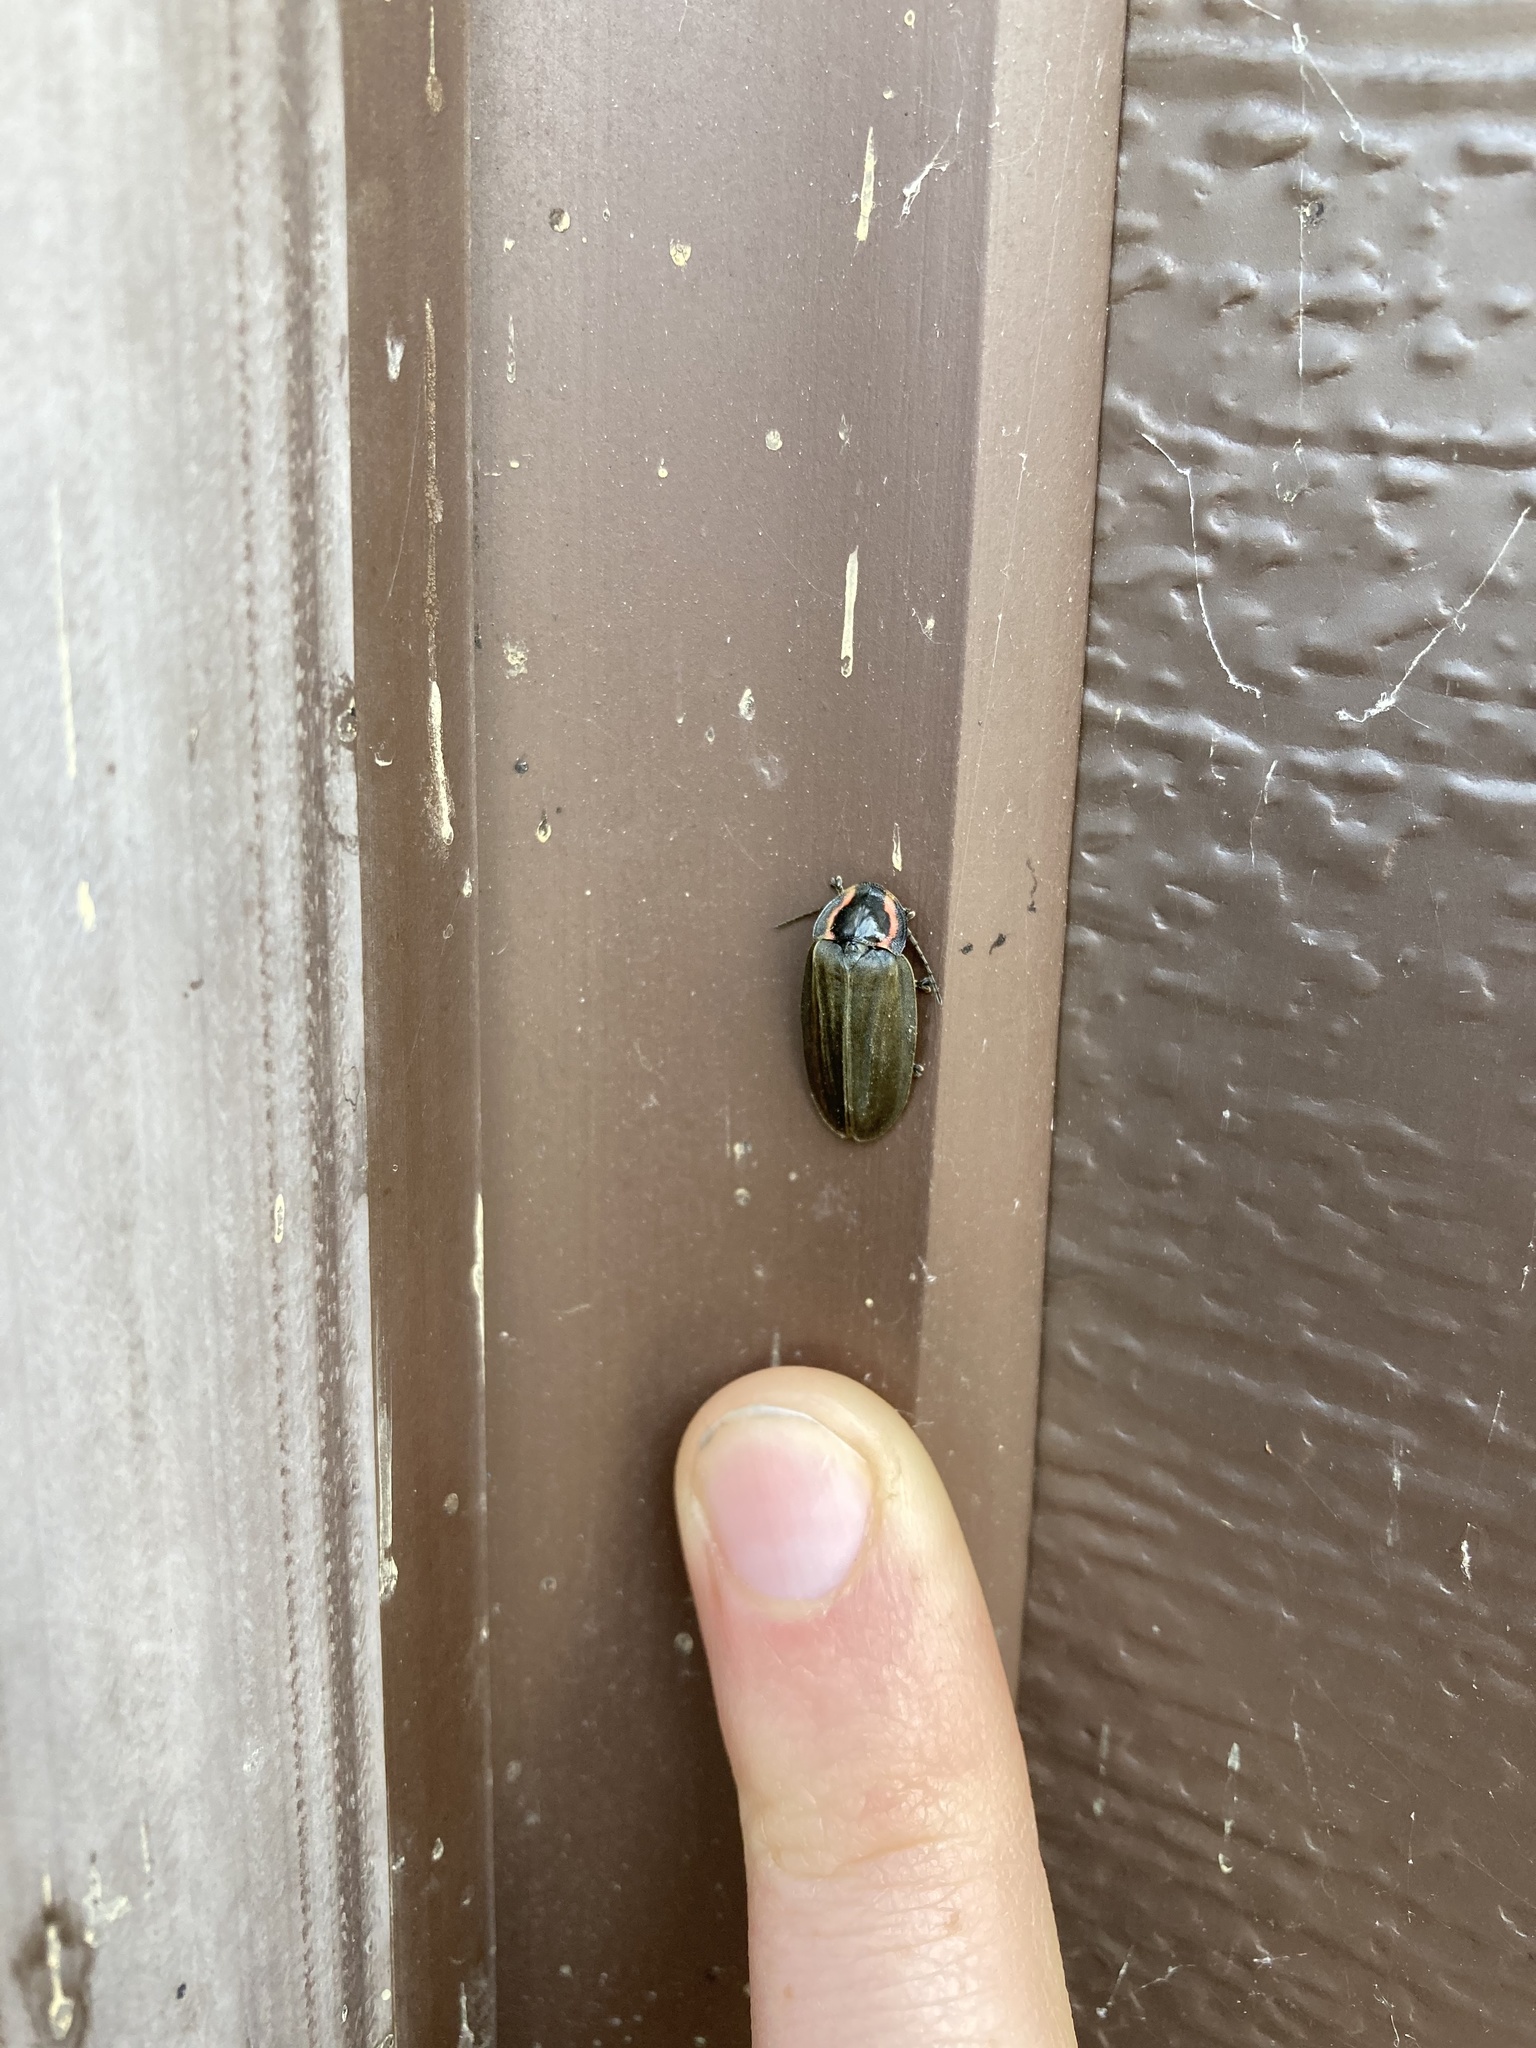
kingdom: Animalia
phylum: Arthropoda
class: Insecta
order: Coleoptera
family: Lampyridae
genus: Photinus
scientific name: Photinus corrusca
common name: Winter firefly
